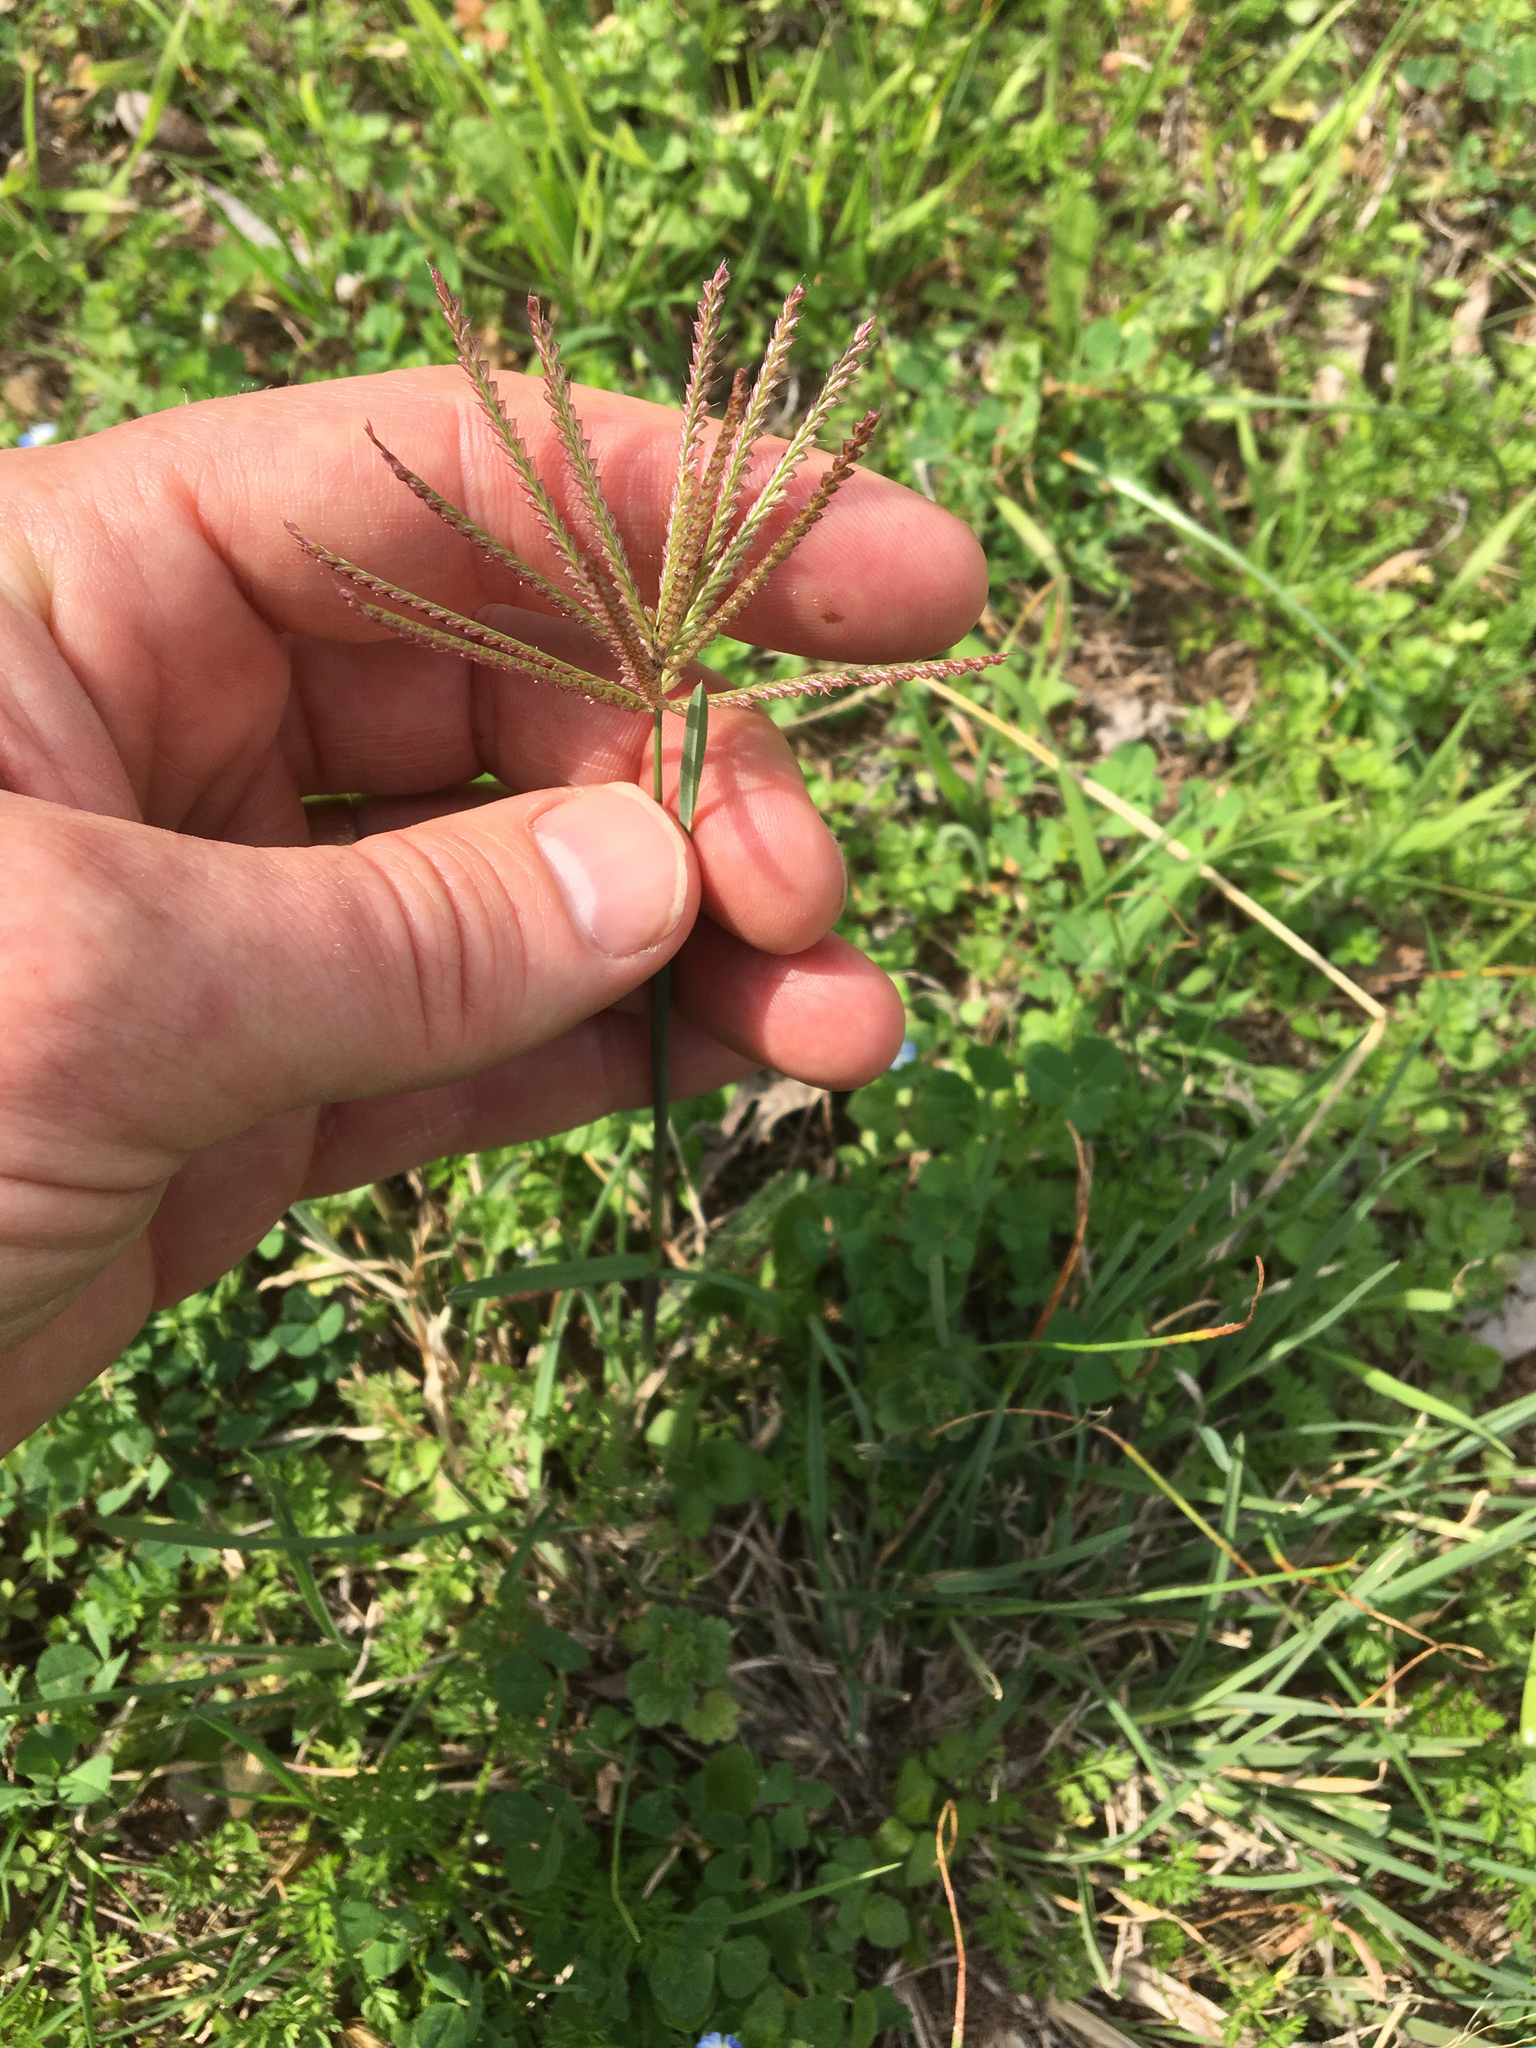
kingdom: Plantae
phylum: Tracheophyta
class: Liliopsida
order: Poales
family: Poaceae
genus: Chloris
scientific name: Chloris subdolichostachya
